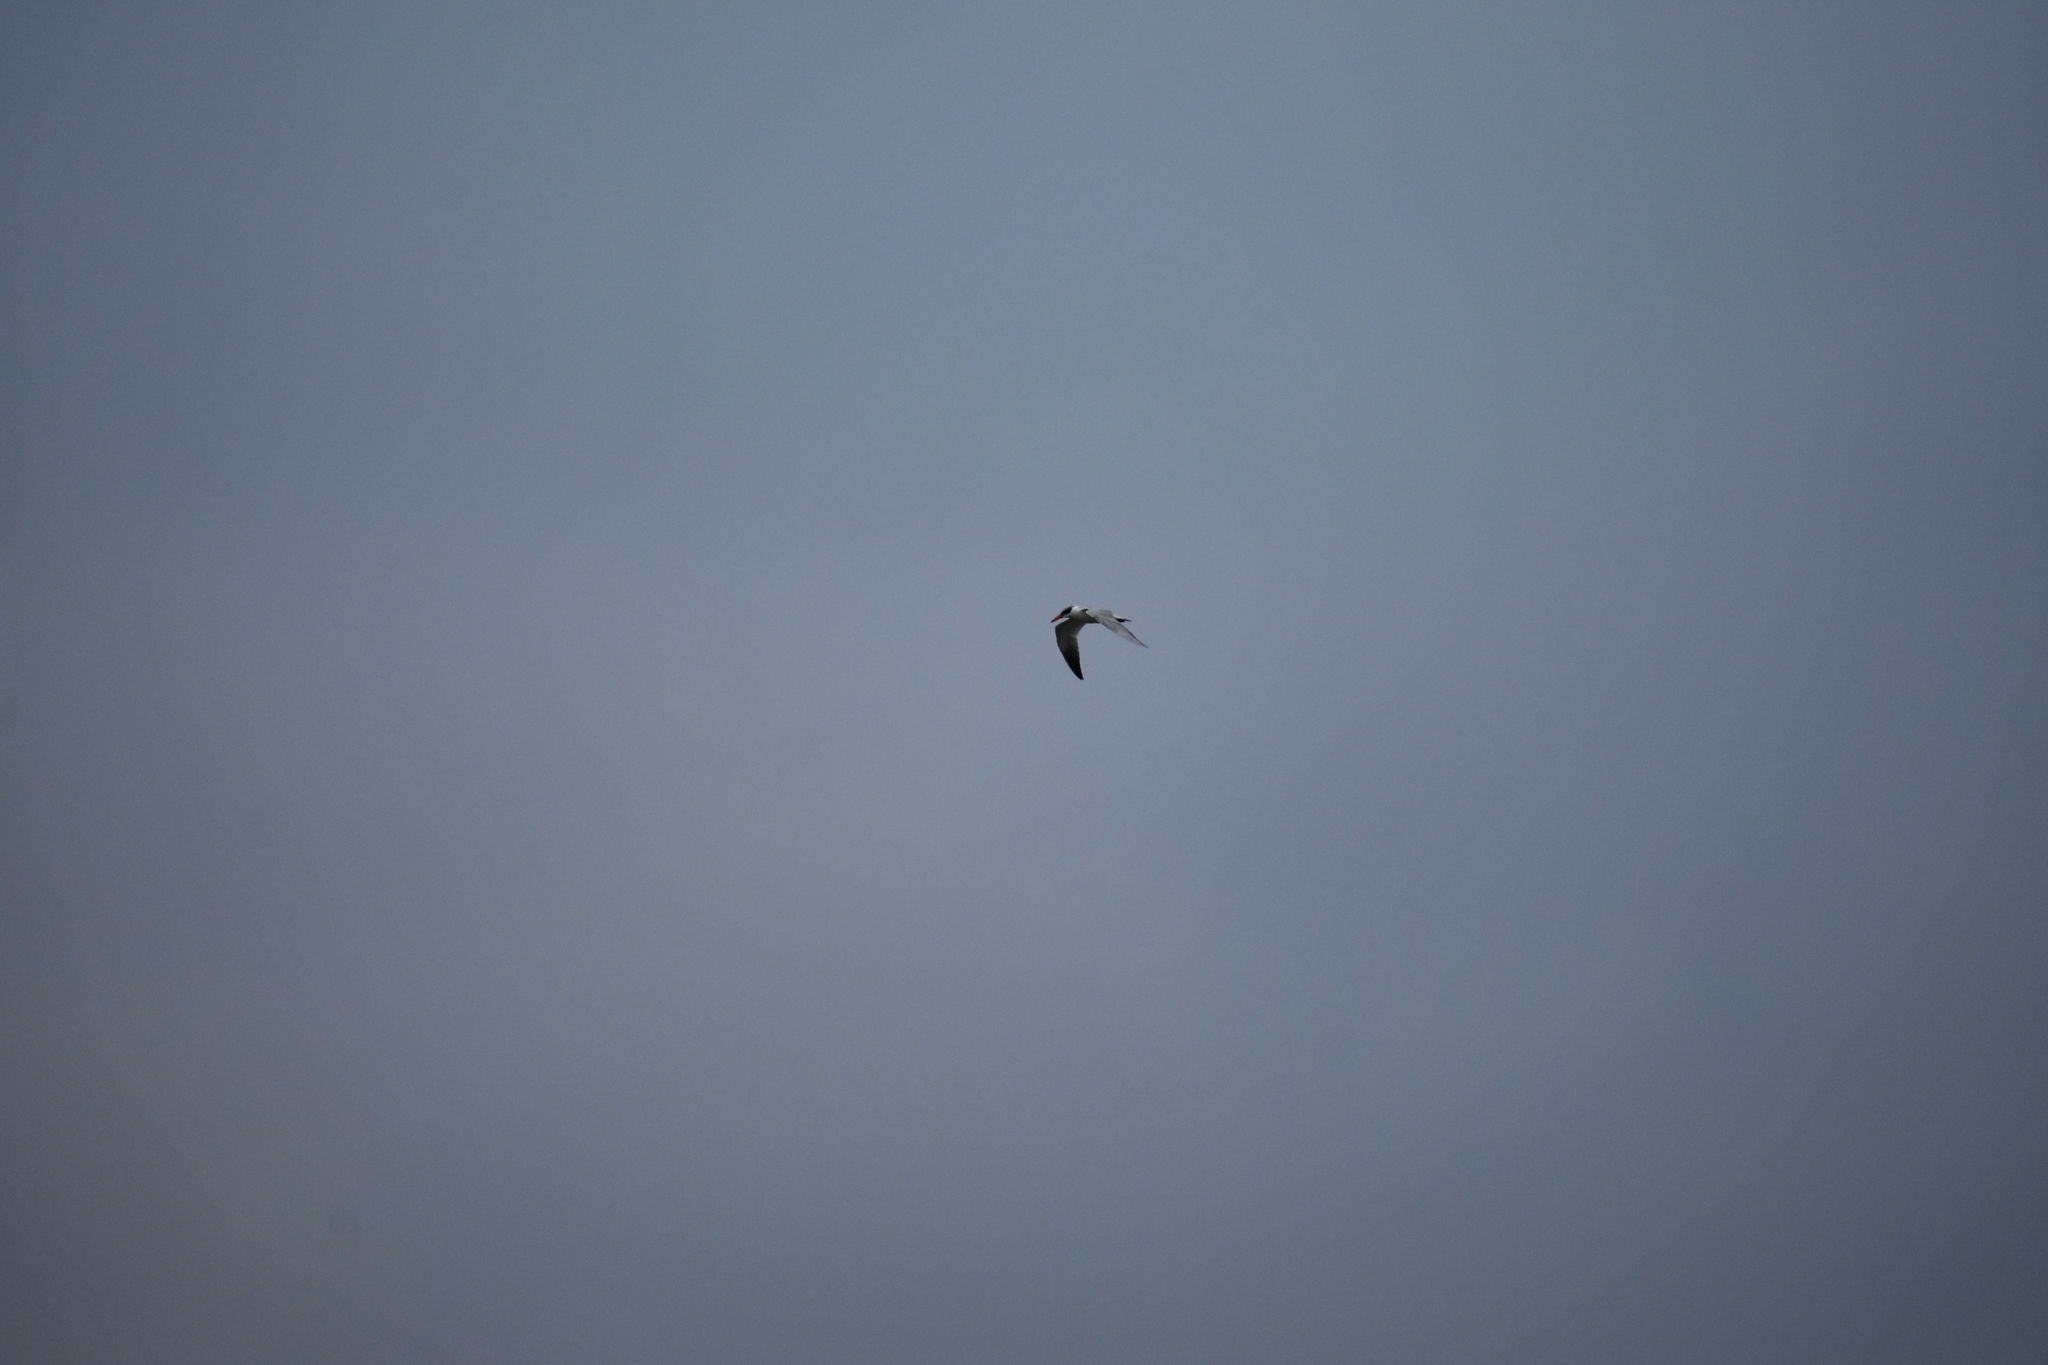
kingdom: Animalia
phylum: Chordata
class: Aves
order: Charadriiformes
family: Laridae
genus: Hydroprogne
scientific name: Hydroprogne caspia
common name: Caspian tern
